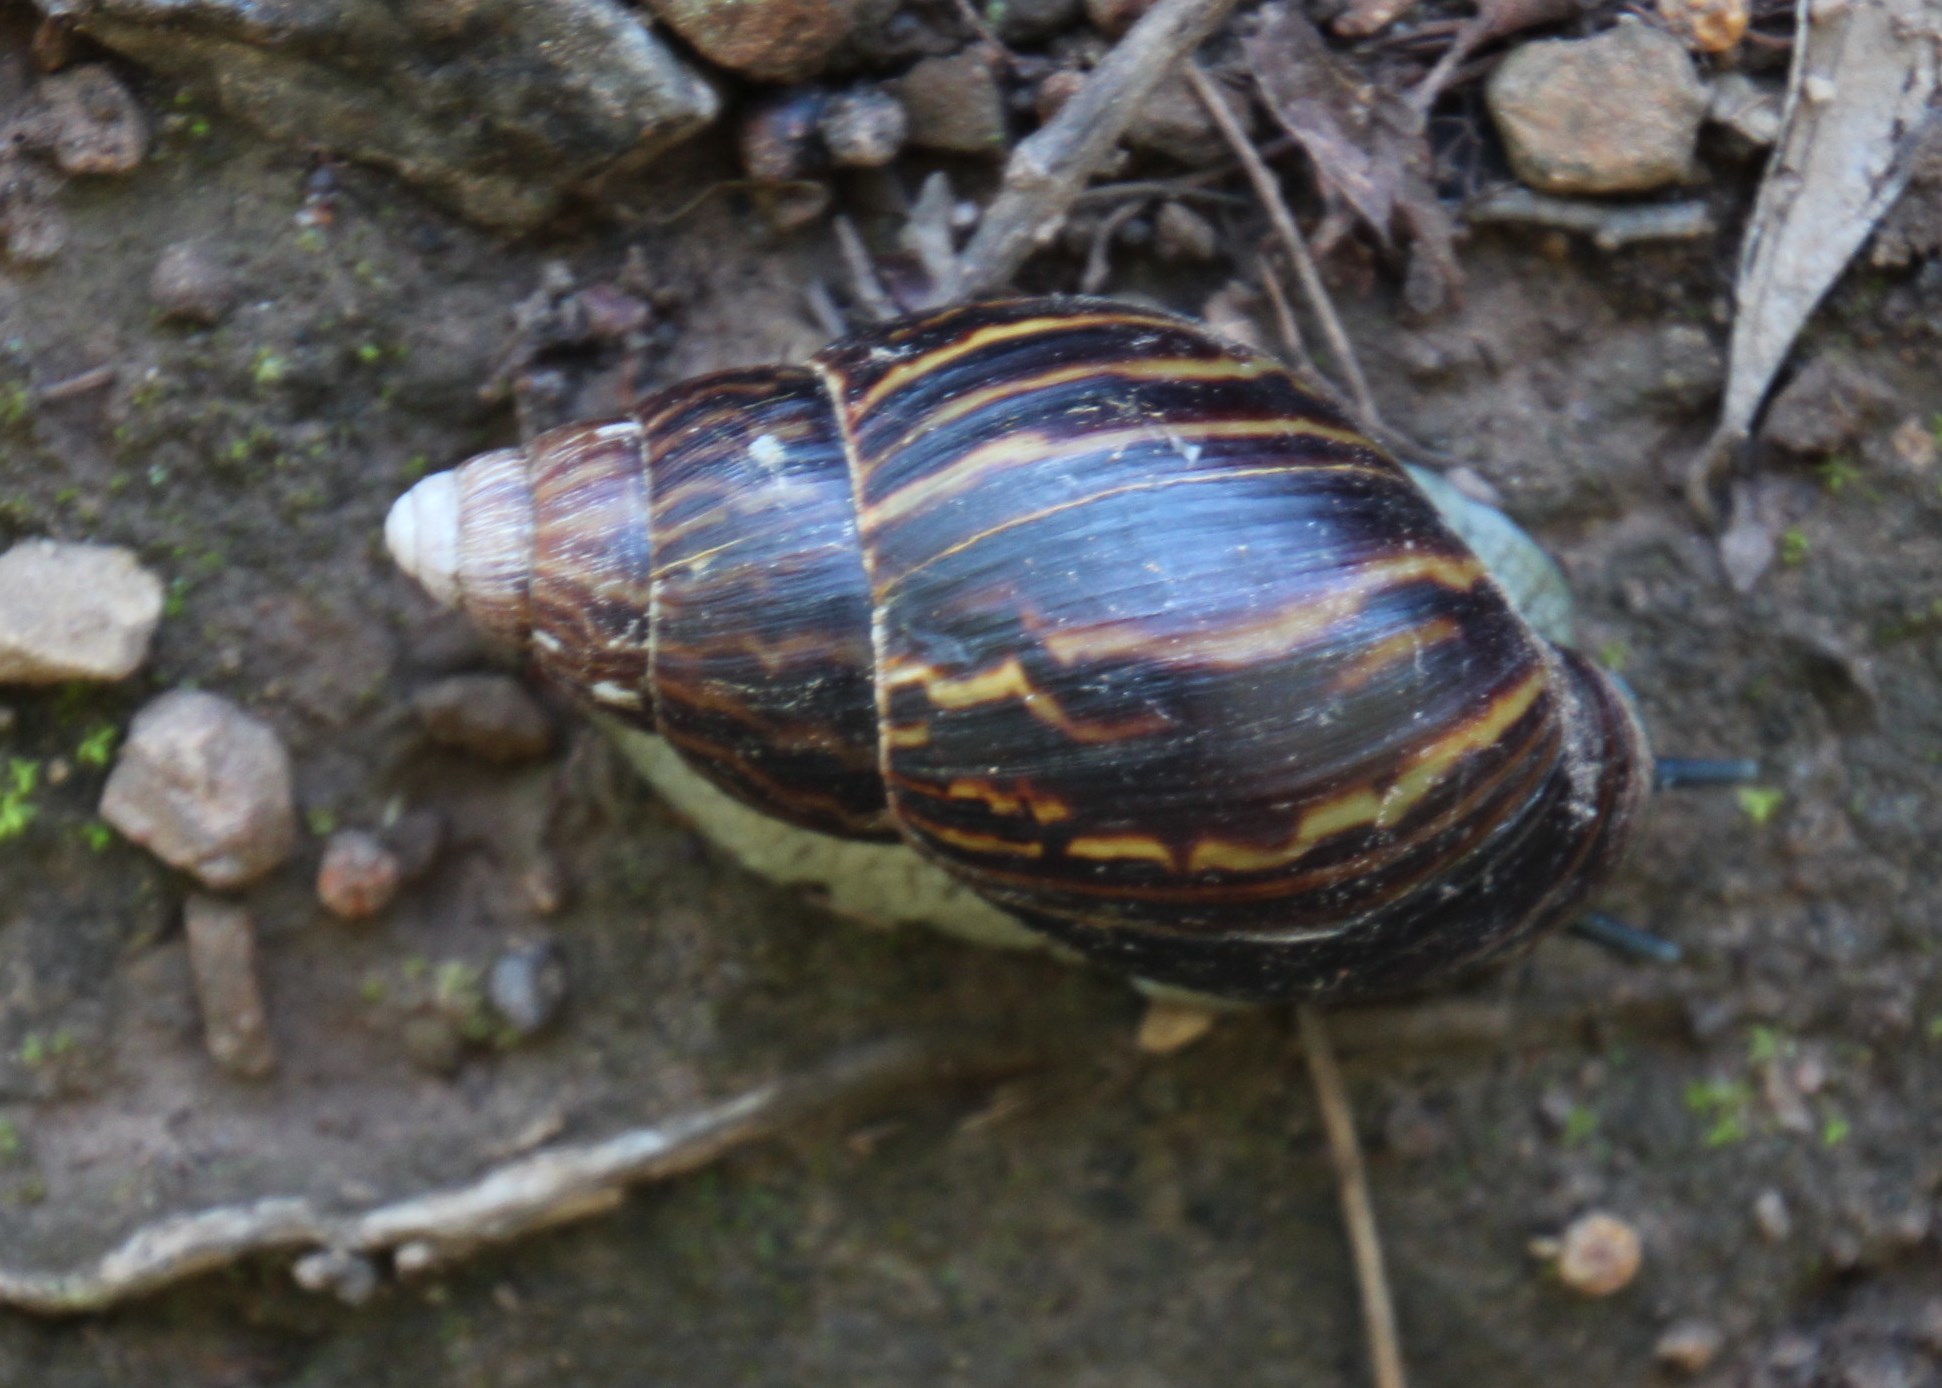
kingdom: Animalia
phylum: Mollusca
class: Gastropoda
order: Stylommatophora
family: Achatinidae
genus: Cochlitoma
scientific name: Cochlitoma zebra
